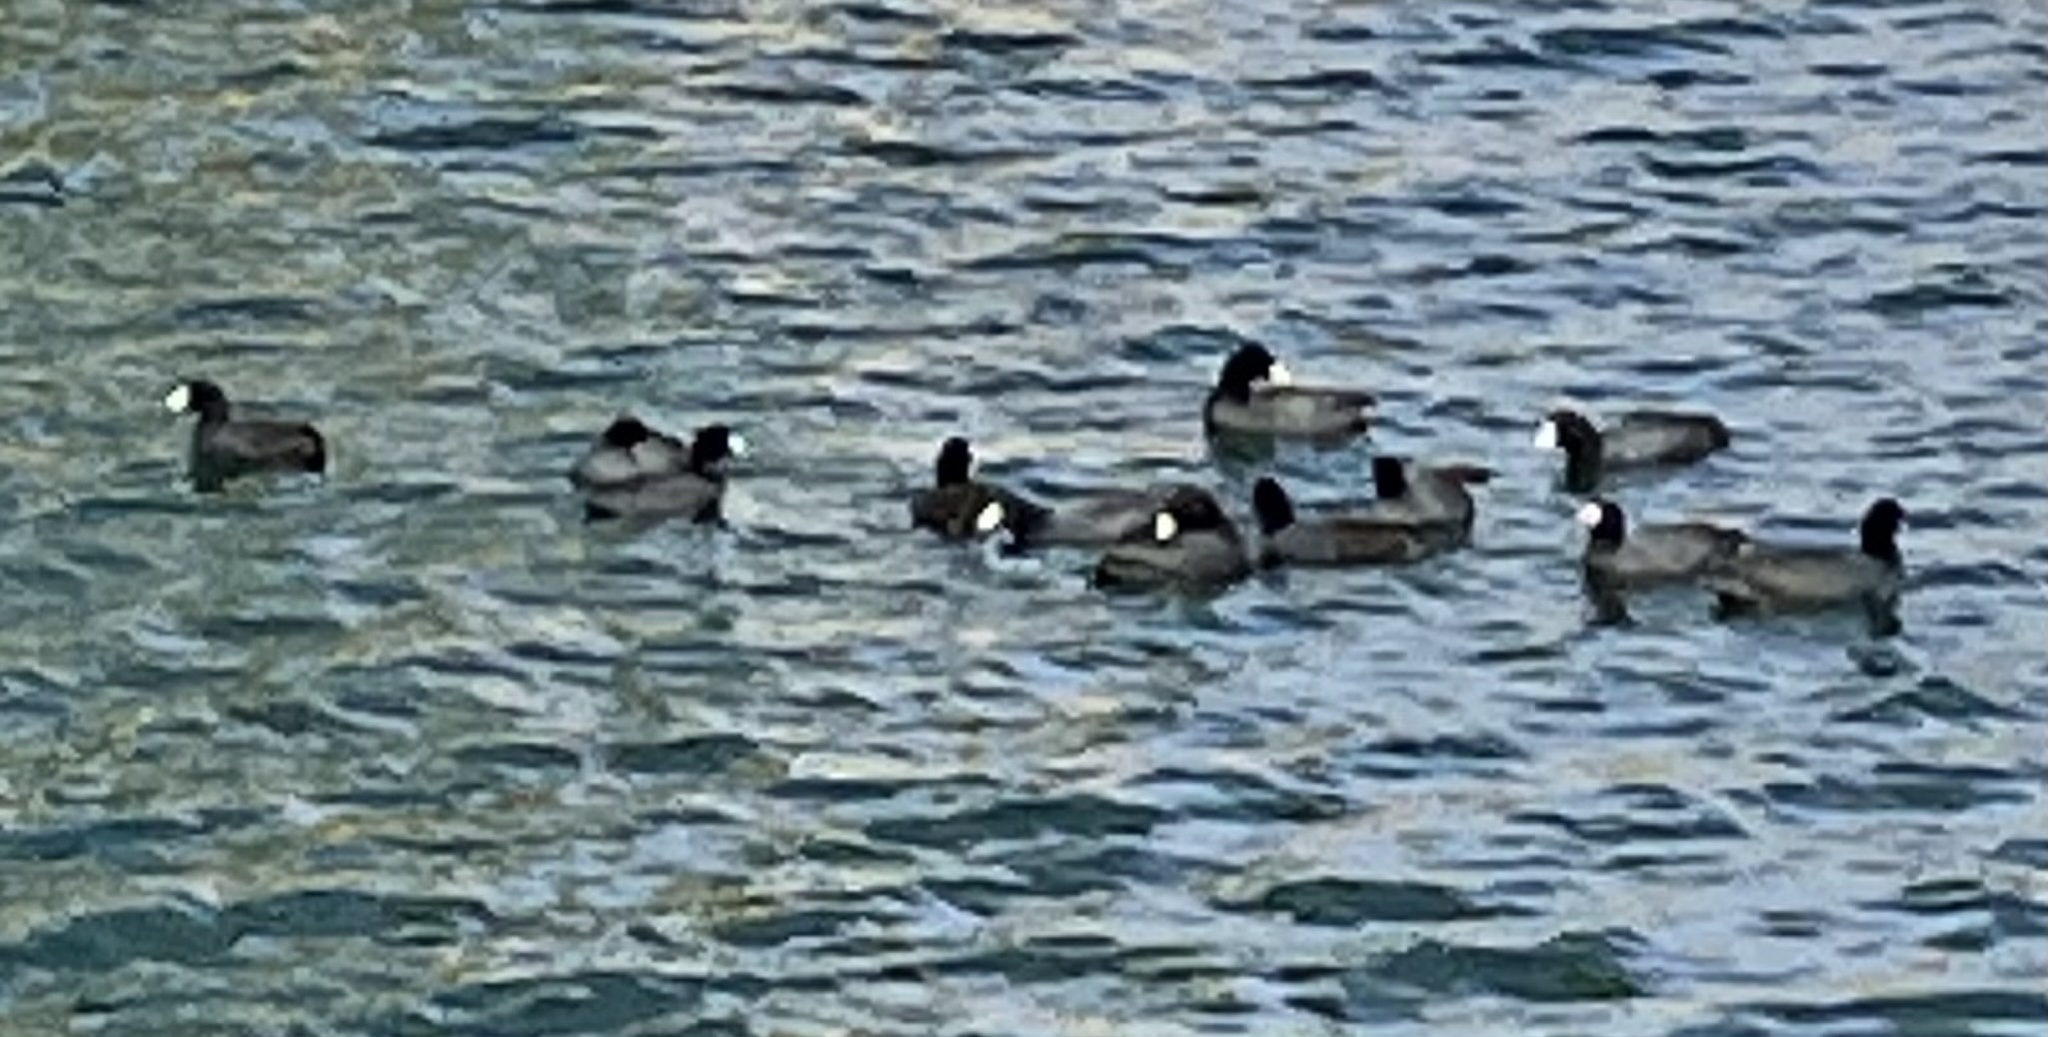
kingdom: Animalia
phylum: Chordata
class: Aves
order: Gruiformes
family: Rallidae
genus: Fulica
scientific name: Fulica americana
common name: American coot
